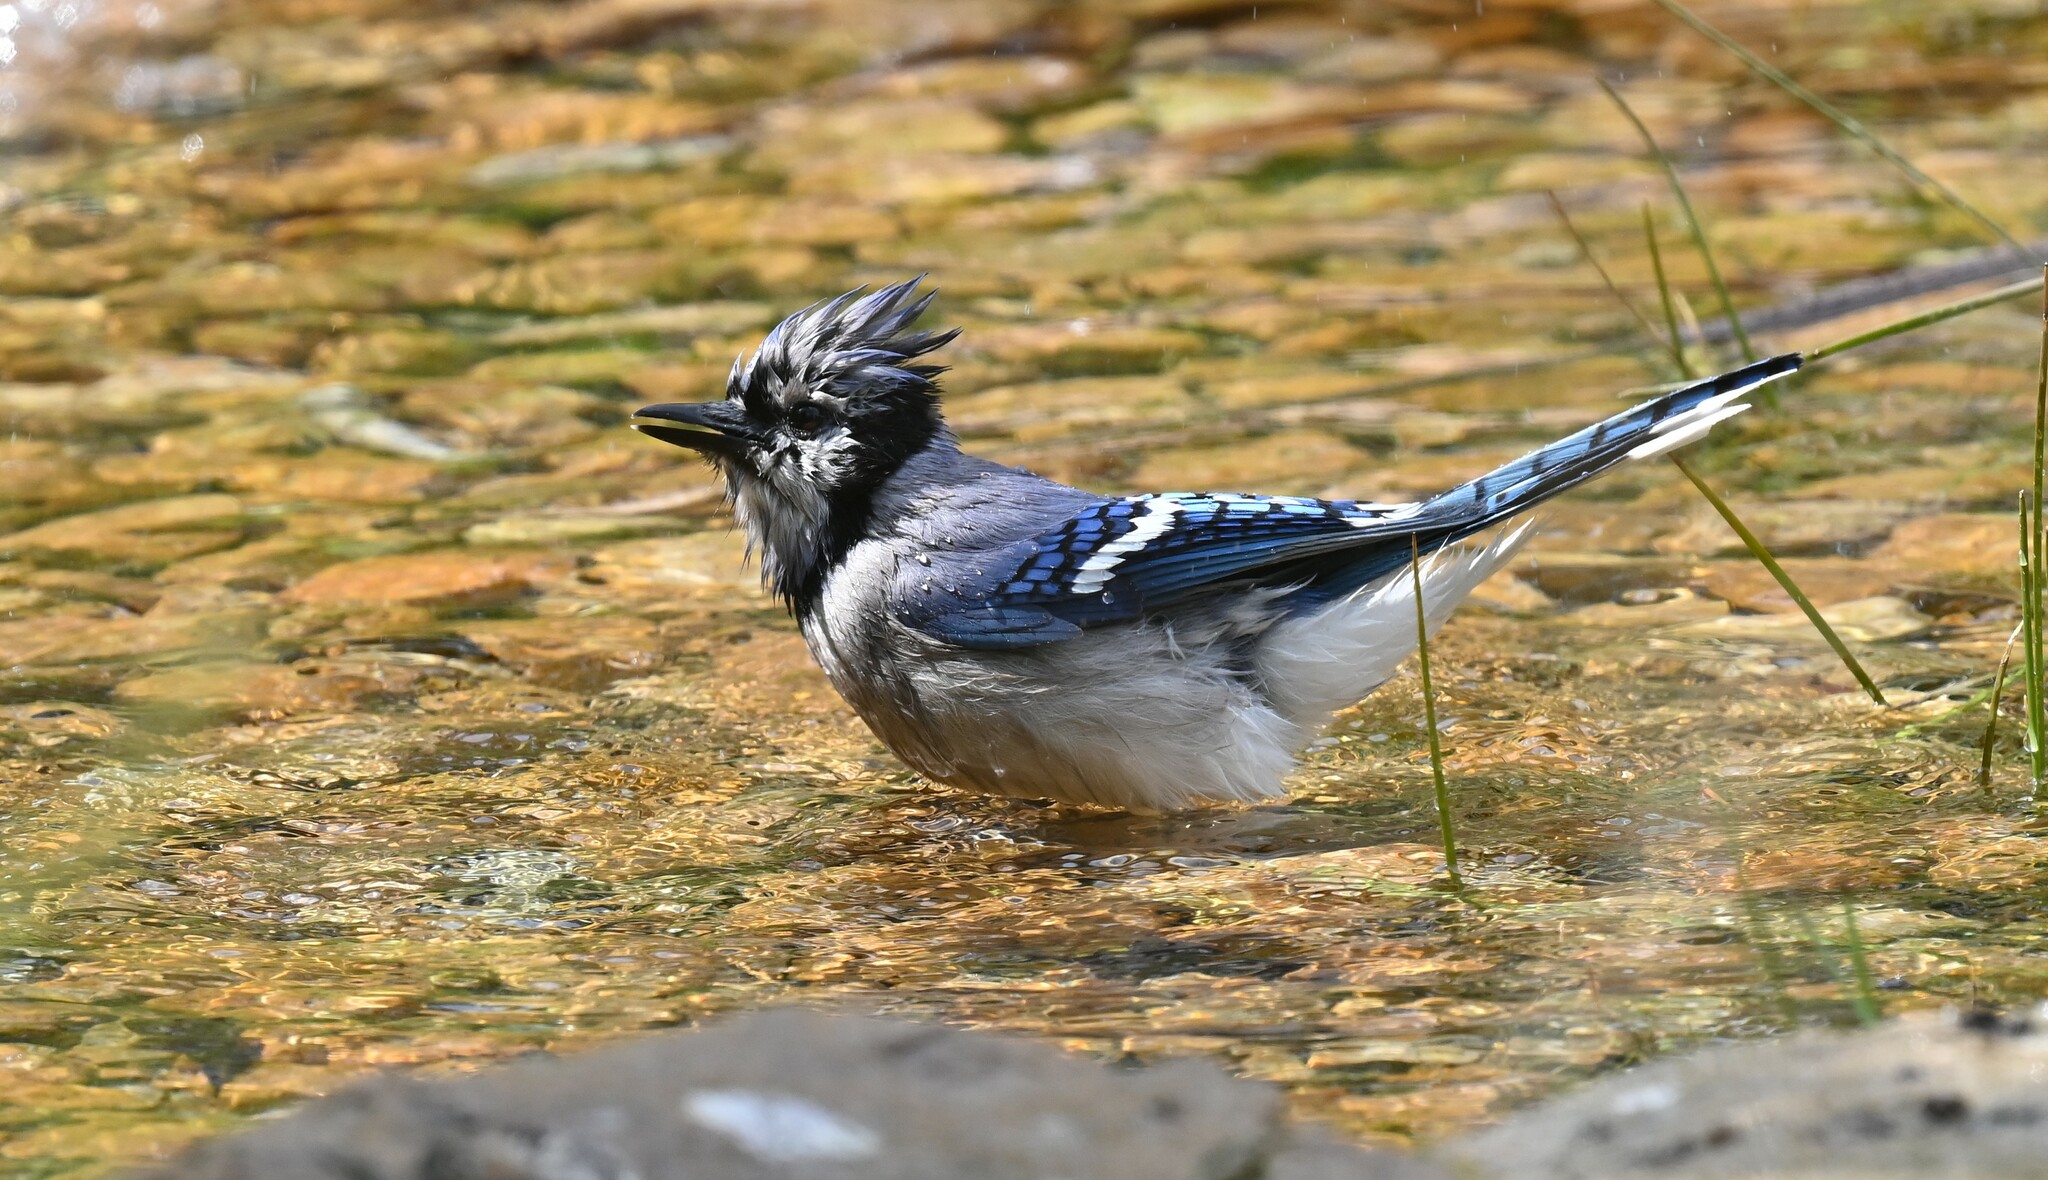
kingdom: Animalia
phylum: Chordata
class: Aves
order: Passeriformes
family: Corvidae
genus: Cyanocitta
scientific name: Cyanocitta cristata
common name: Blue jay
